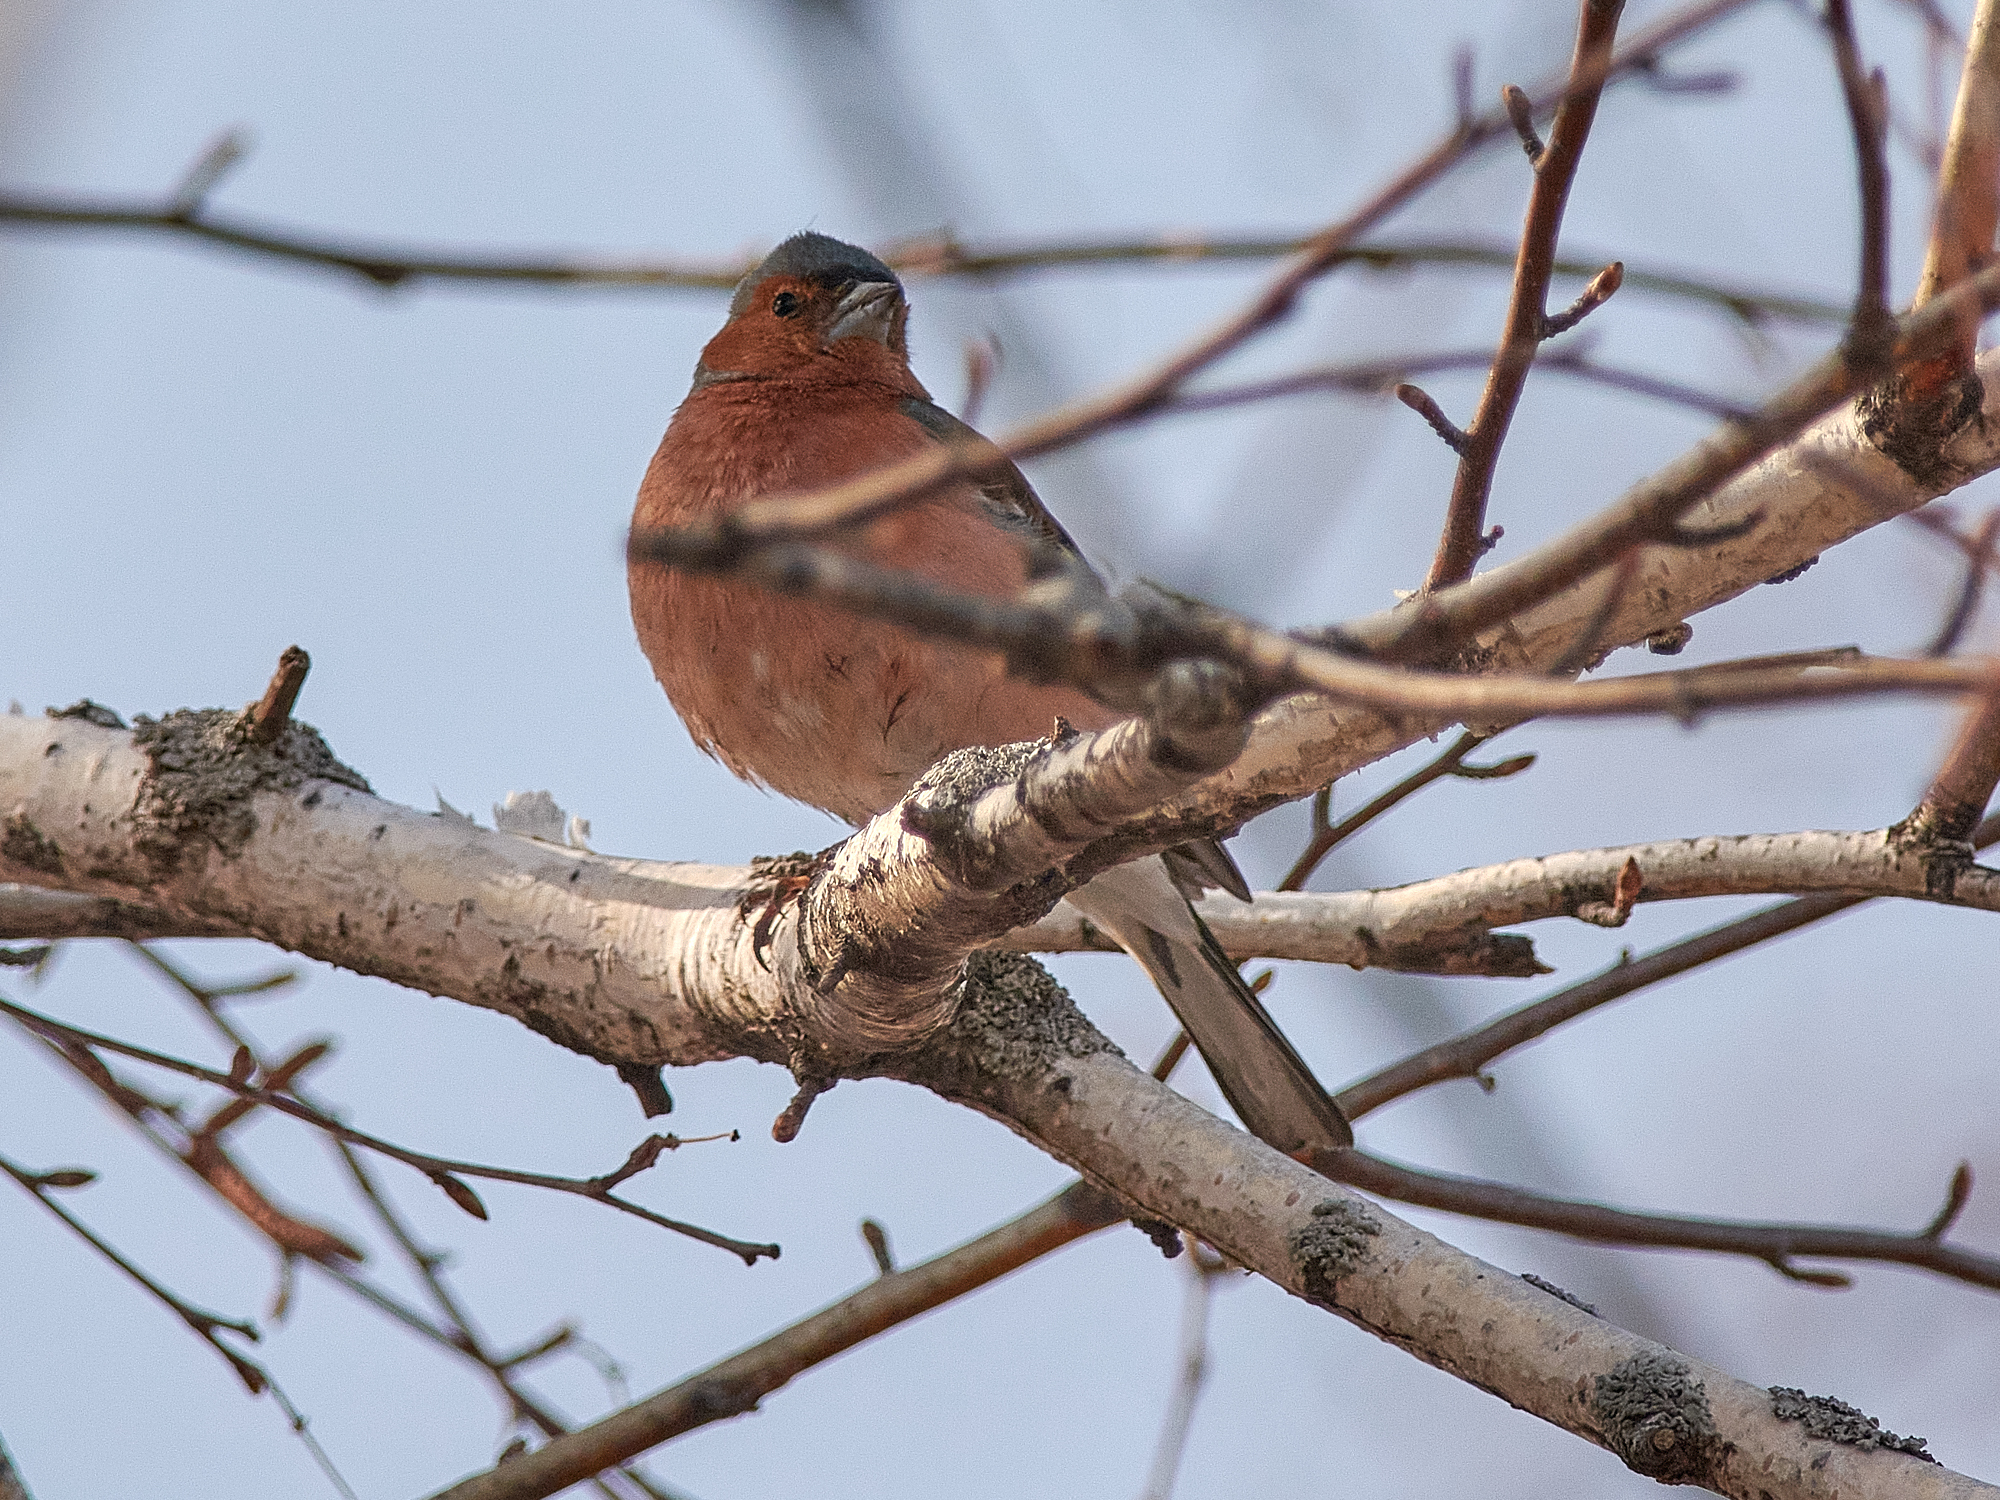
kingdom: Animalia
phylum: Chordata
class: Aves
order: Passeriformes
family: Fringillidae
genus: Fringilla
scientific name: Fringilla coelebs
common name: Common chaffinch
